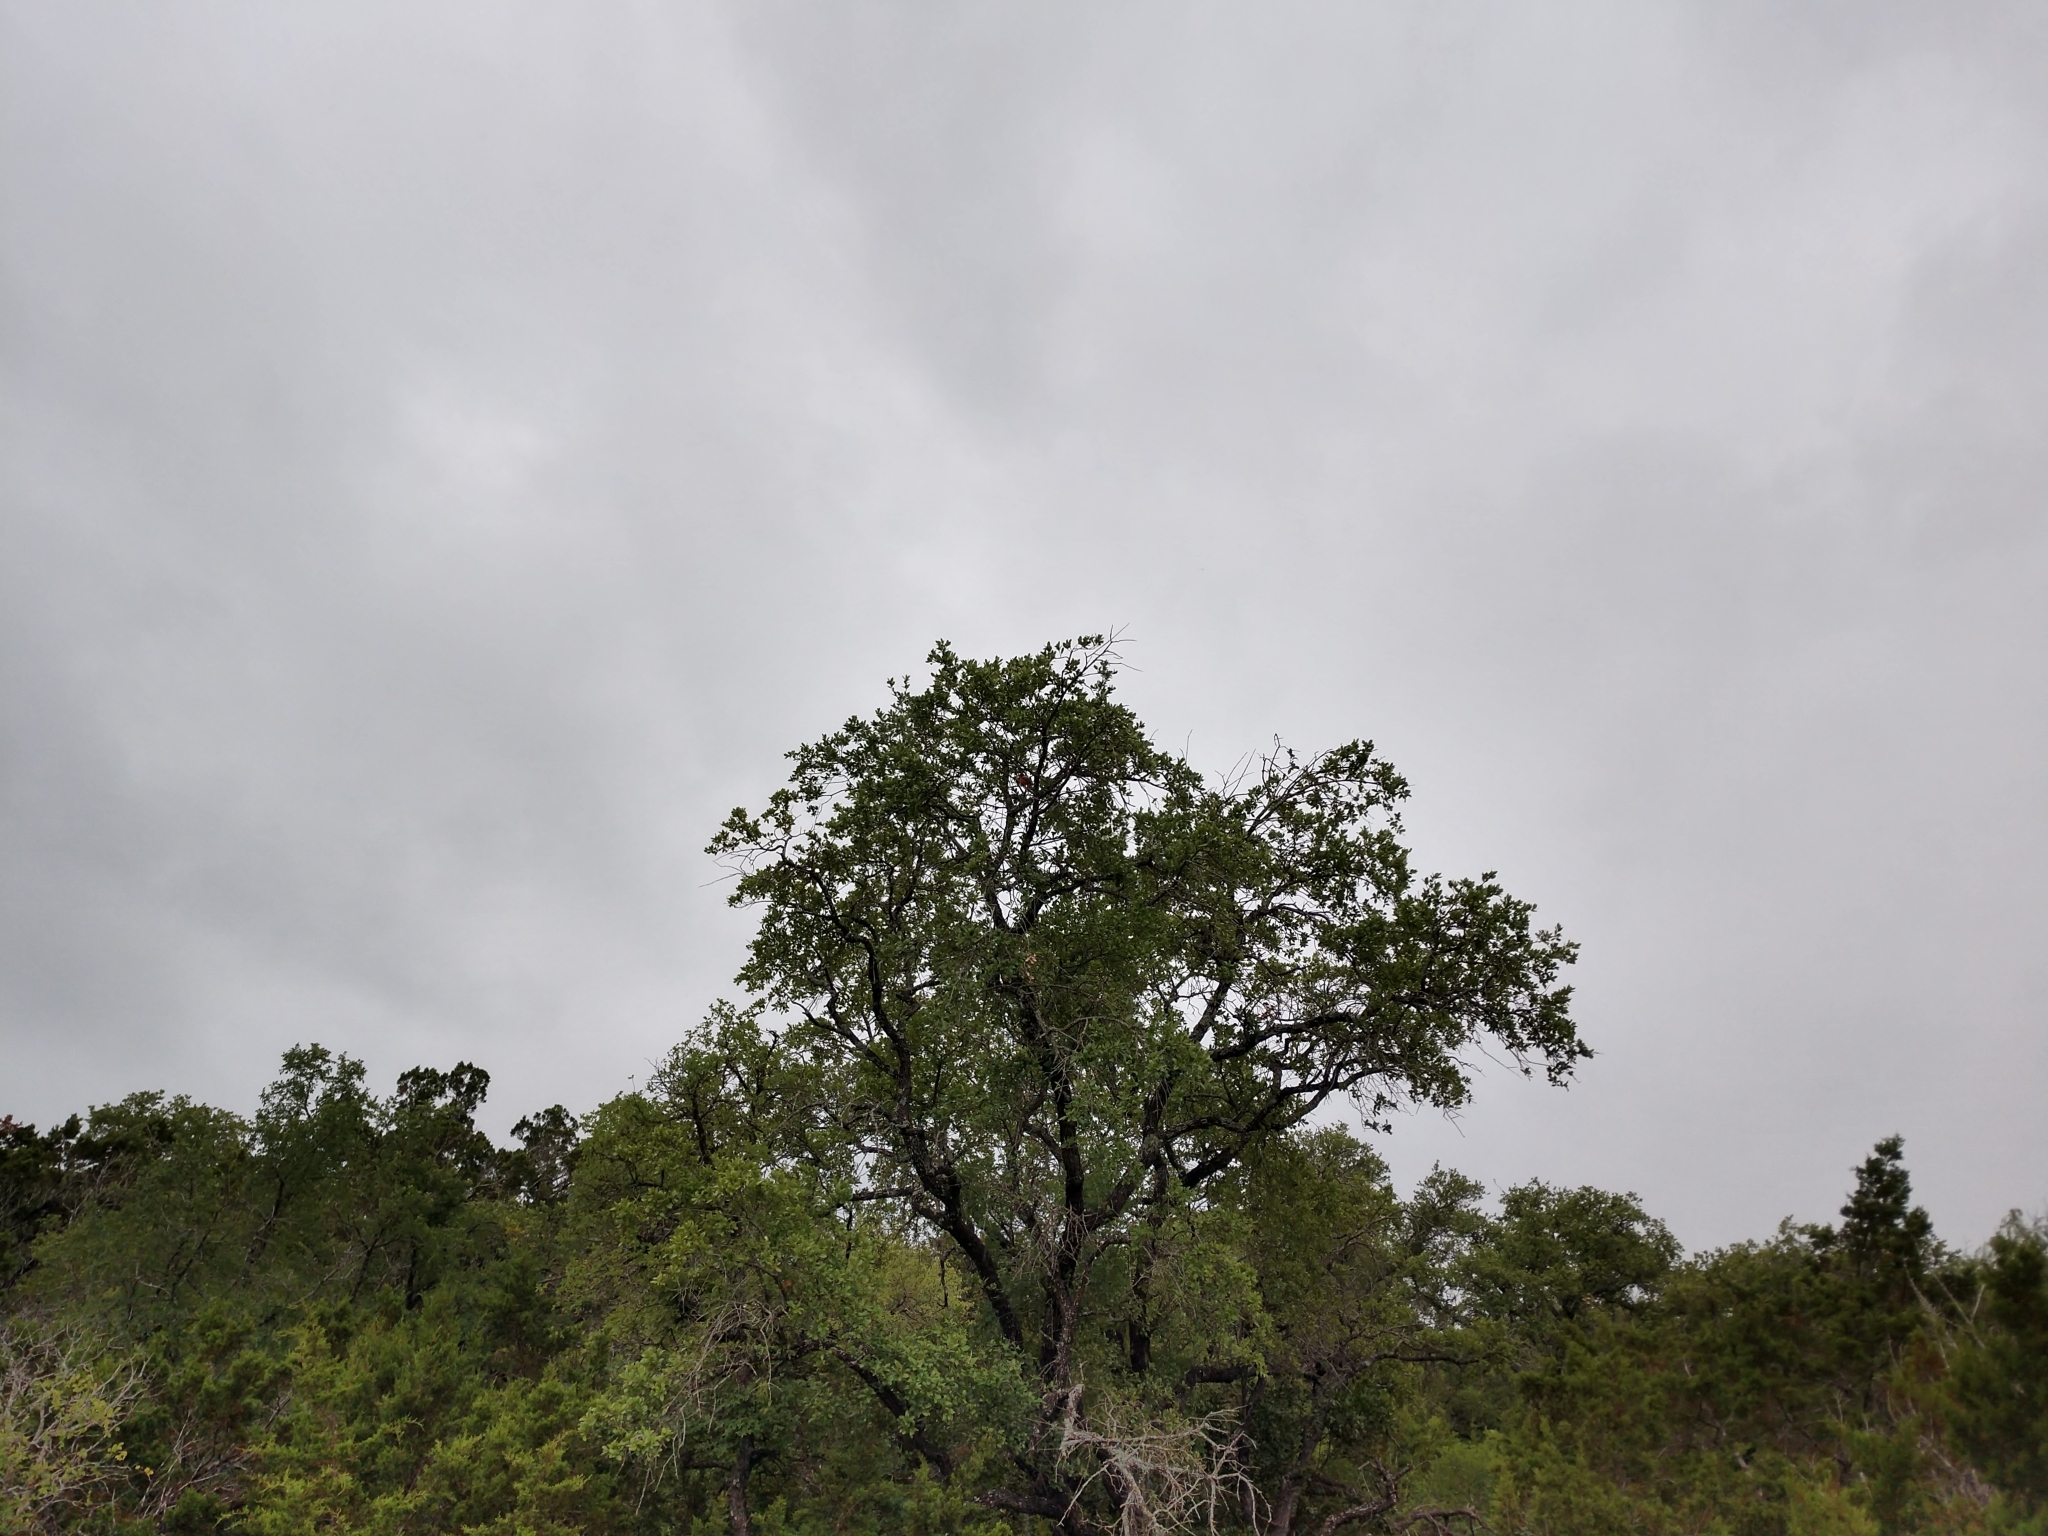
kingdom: Animalia
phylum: Chordata
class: Aves
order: Passeriformes
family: Cardinalidae
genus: Passerina
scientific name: Passerina ciris
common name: Painted bunting
